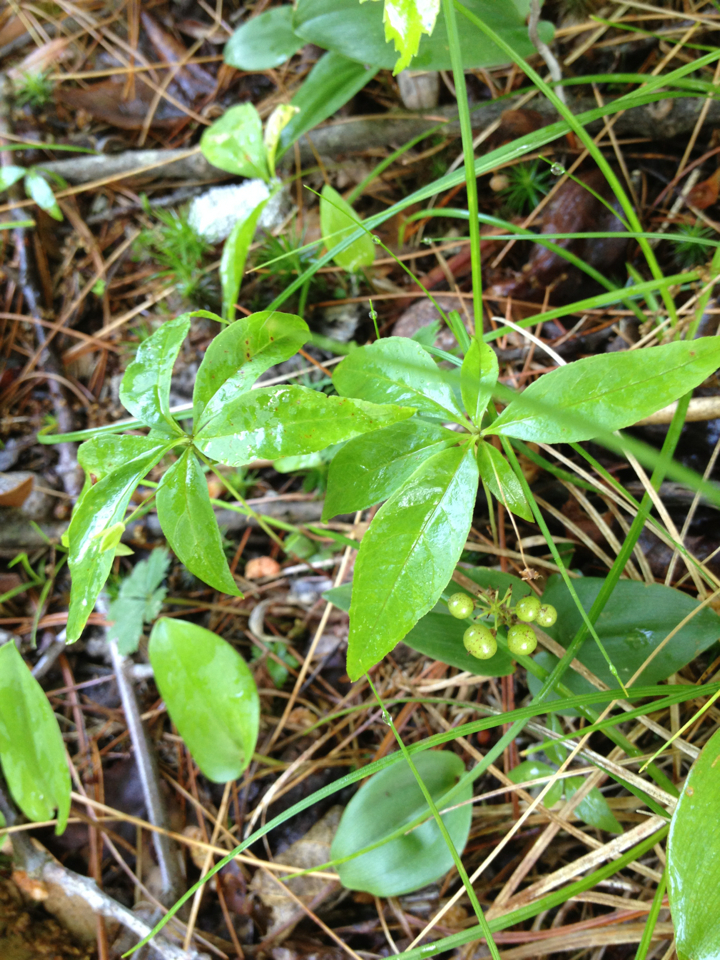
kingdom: Plantae
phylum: Tracheophyta
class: Magnoliopsida
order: Ericales
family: Primulaceae
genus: Lysimachia
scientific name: Lysimachia borealis
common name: American starflower
